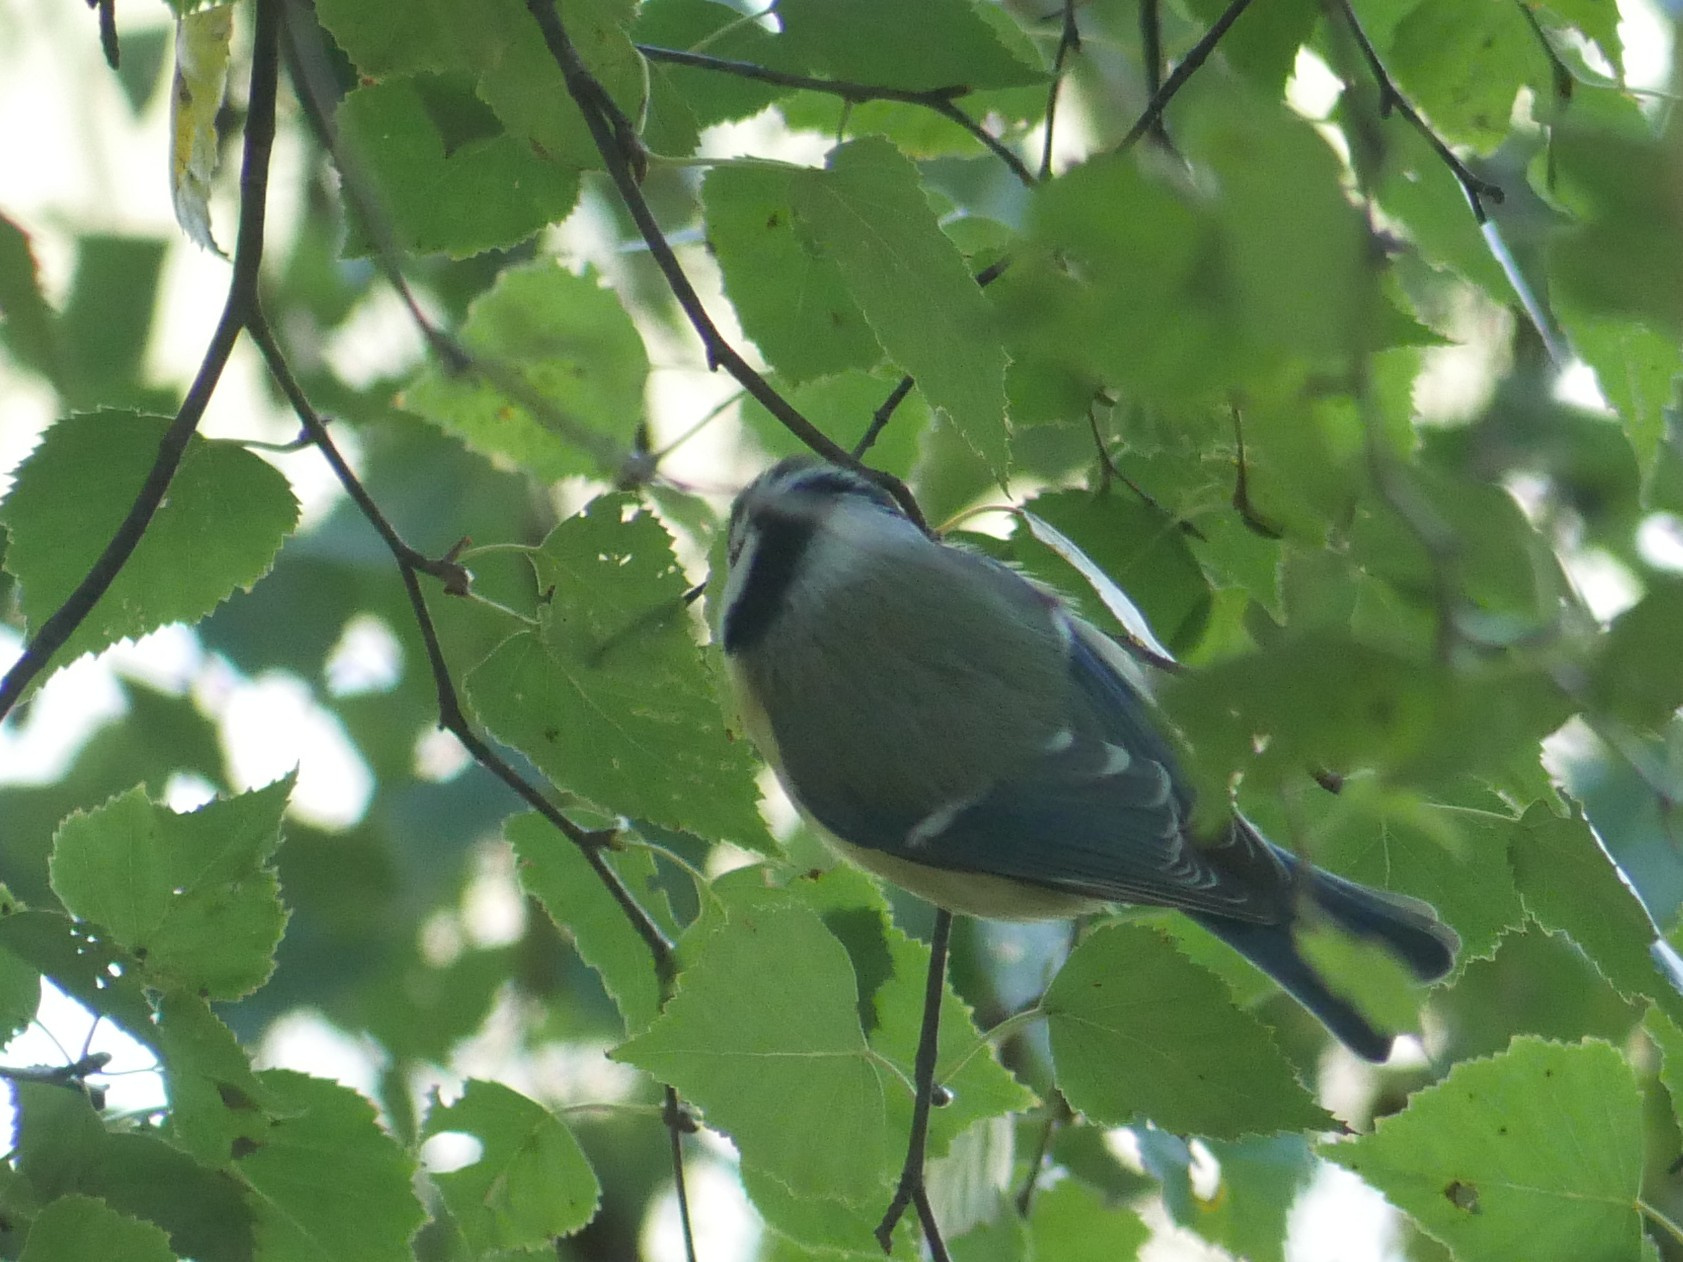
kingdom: Animalia
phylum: Chordata
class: Aves
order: Passeriformes
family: Paridae
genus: Cyanistes
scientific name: Cyanistes caeruleus
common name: Eurasian blue tit
